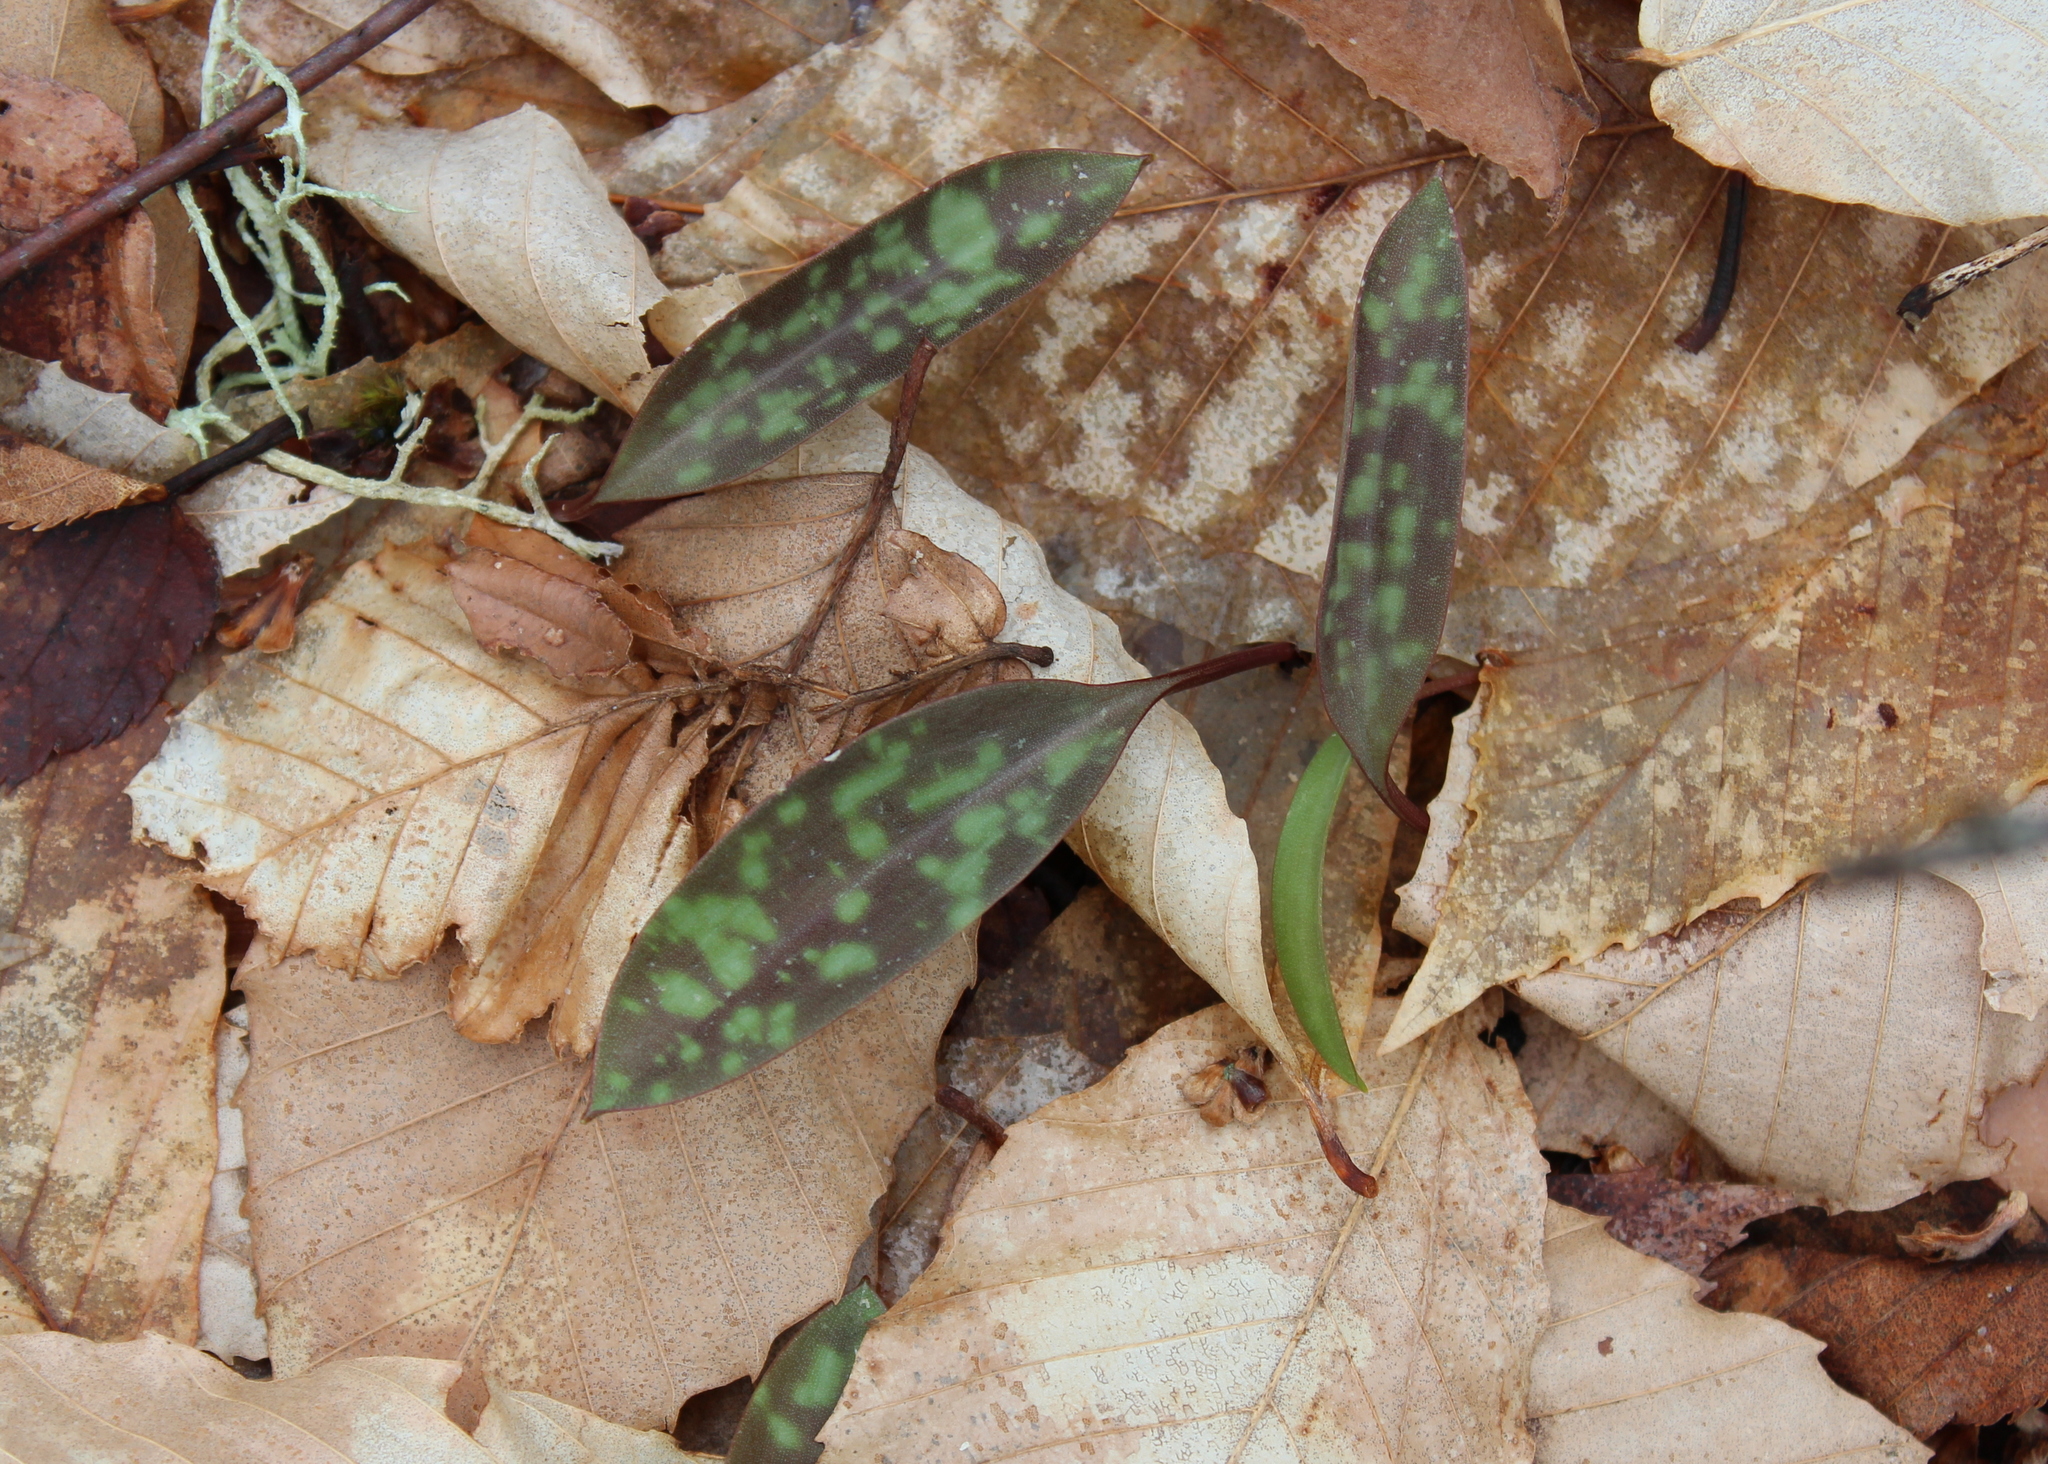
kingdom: Plantae
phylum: Tracheophyta
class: Liliopsida
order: Liliales
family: Liliaceae
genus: Erythronium
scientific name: Erythronium americanum
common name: Yellow adder's-tongue
